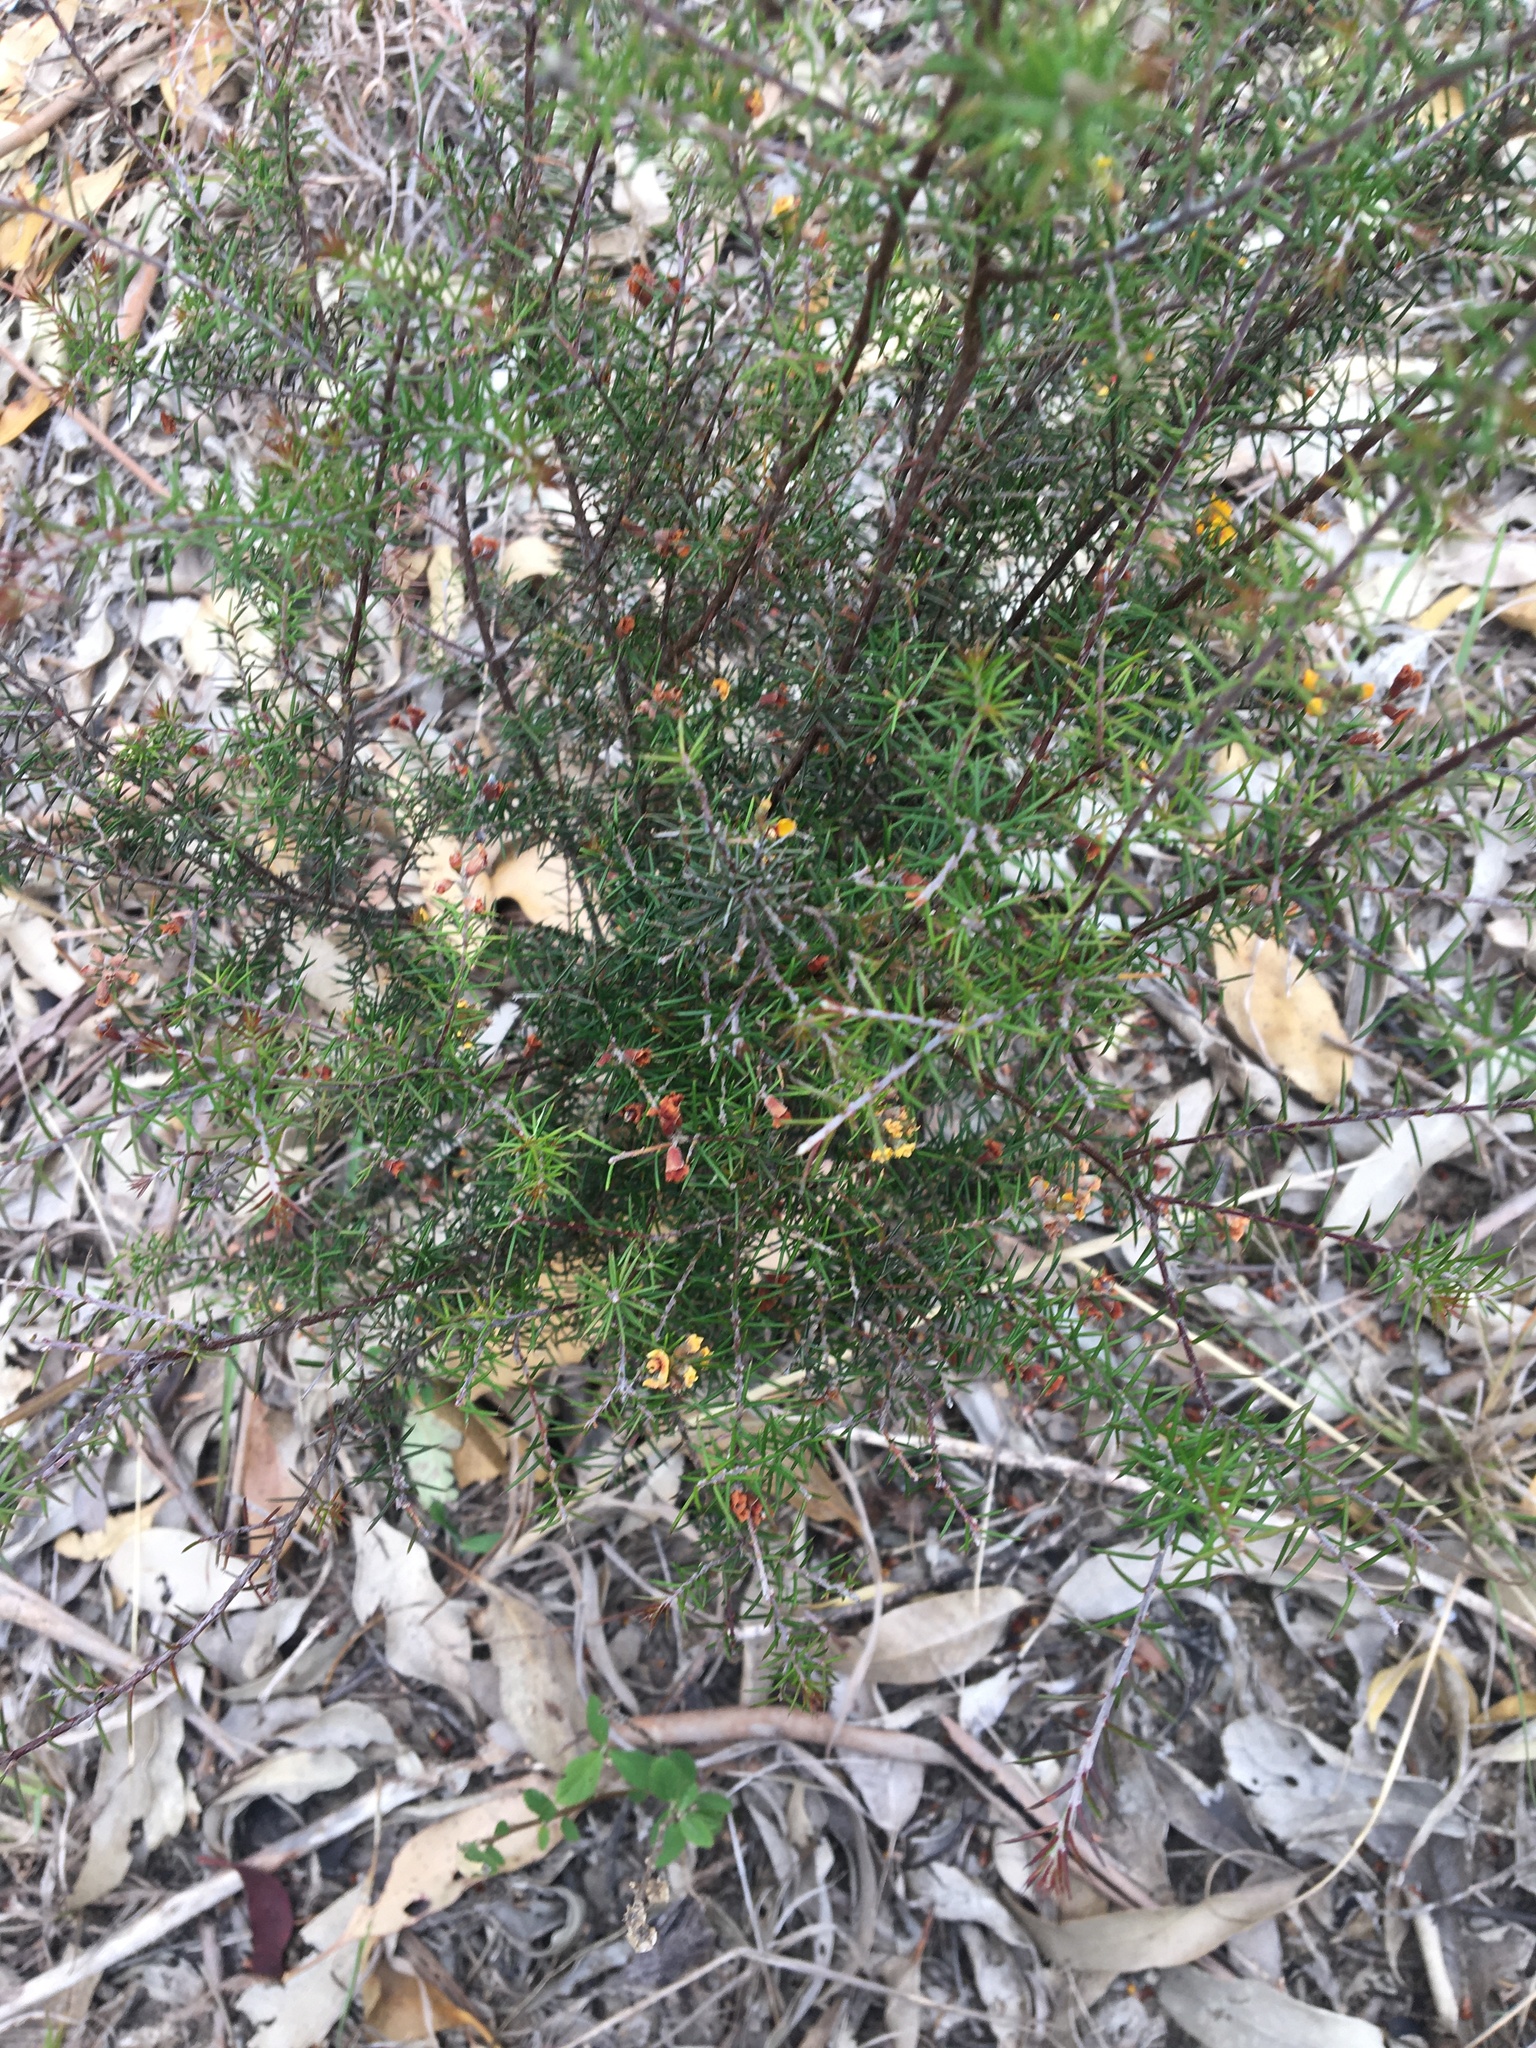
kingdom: Plantae
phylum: Tracheophyta
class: Magnoliopsida
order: Fabales
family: Fabaceae
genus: Dillwynia
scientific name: Dillwynia sieberi
